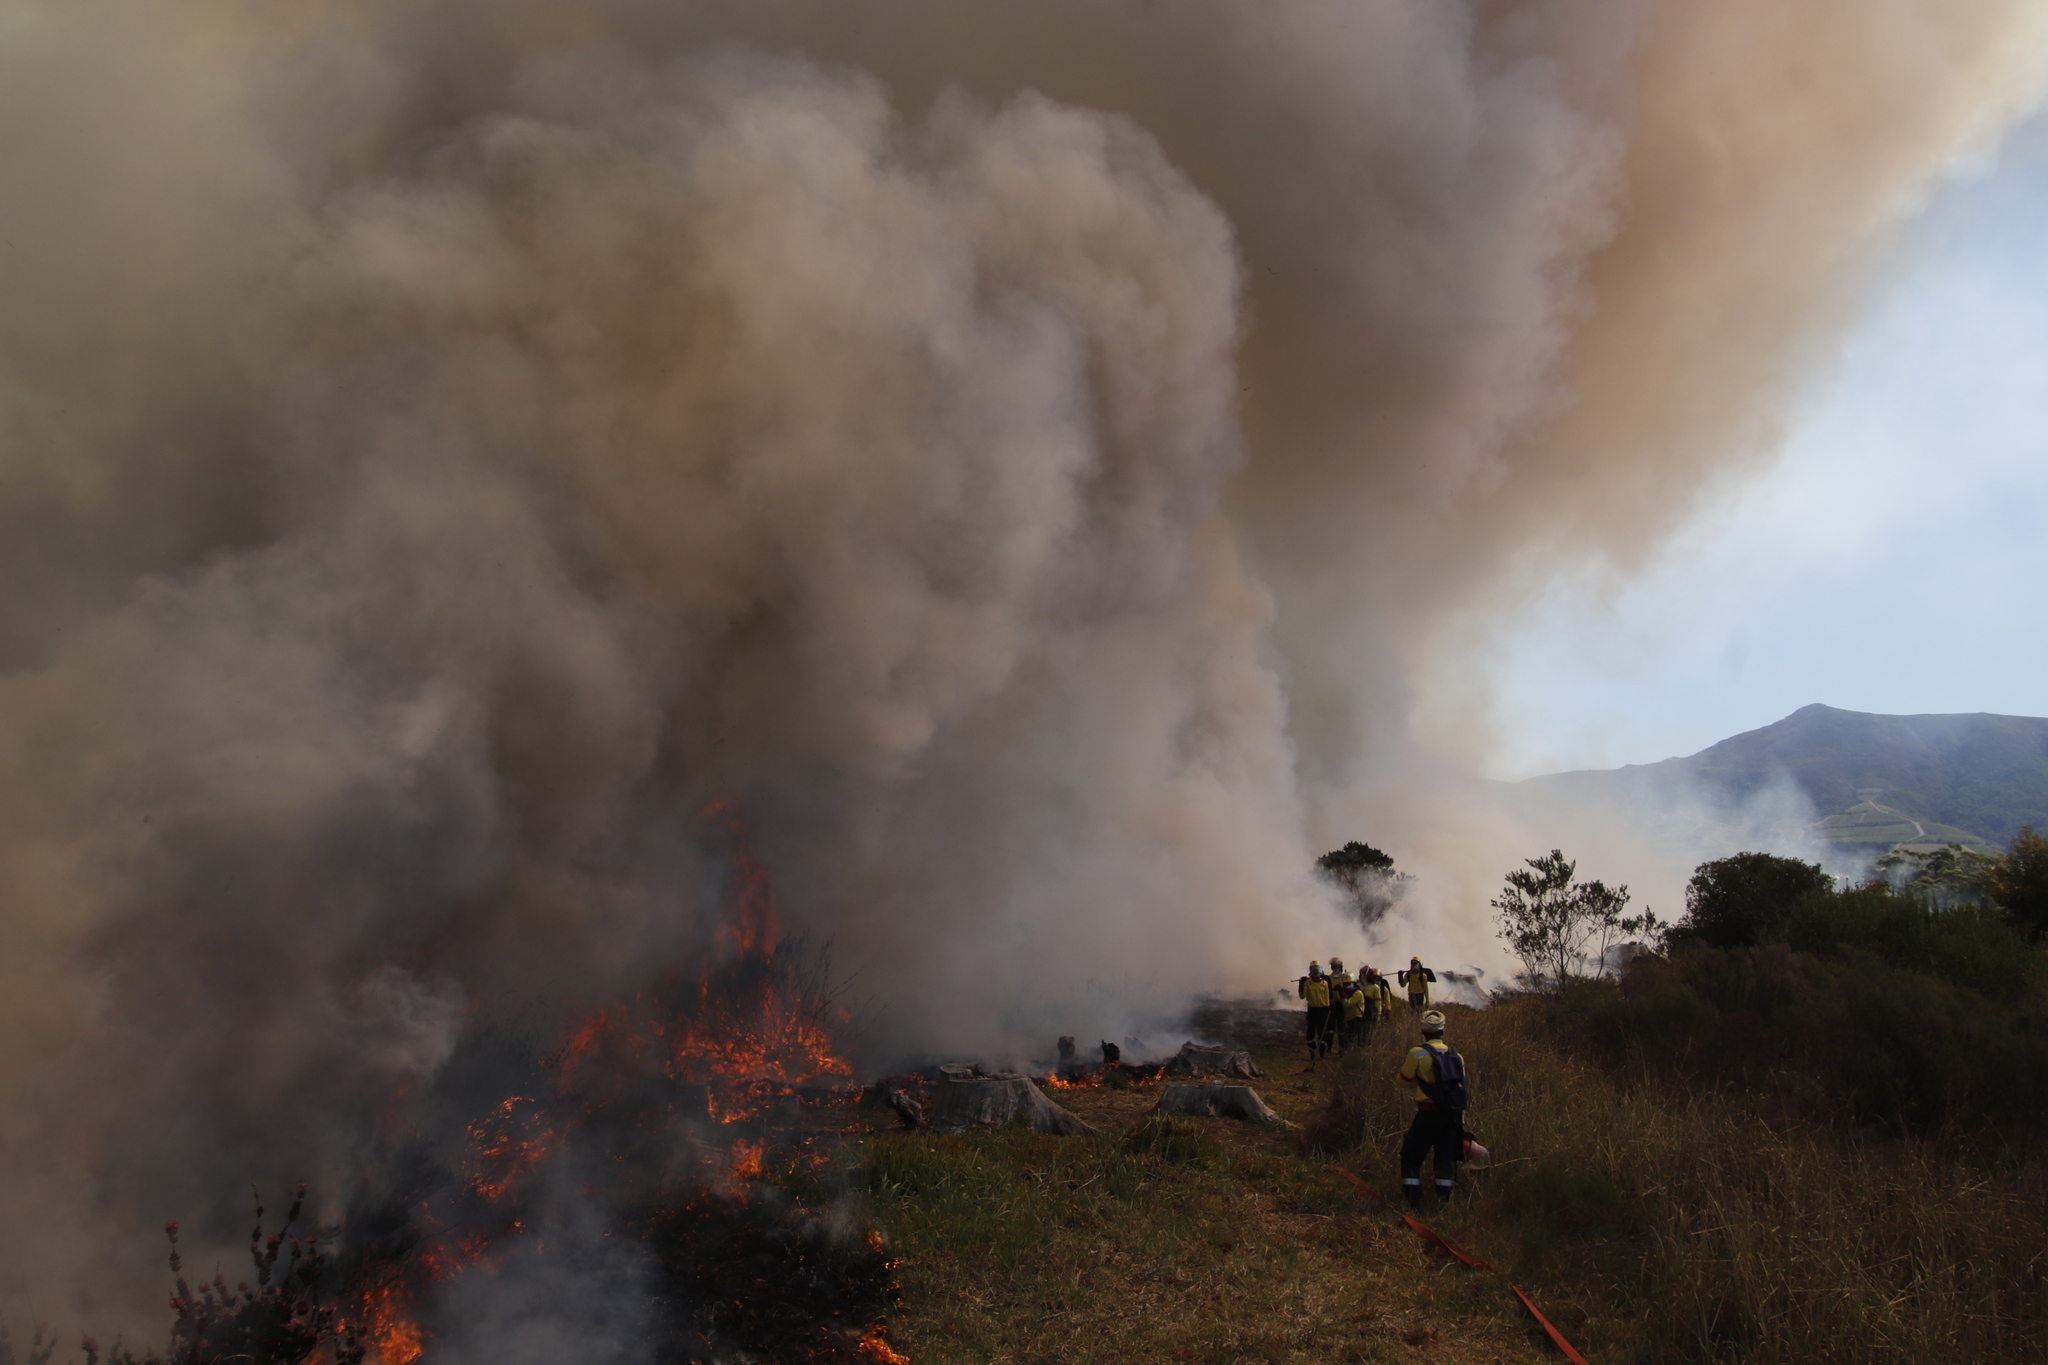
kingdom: Plantae
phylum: Tracheophyta
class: Liliopsida
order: Poales
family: Poaceae
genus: Stenotaphrum
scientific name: Stenotaphrum secundatum
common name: St. augustine grass
